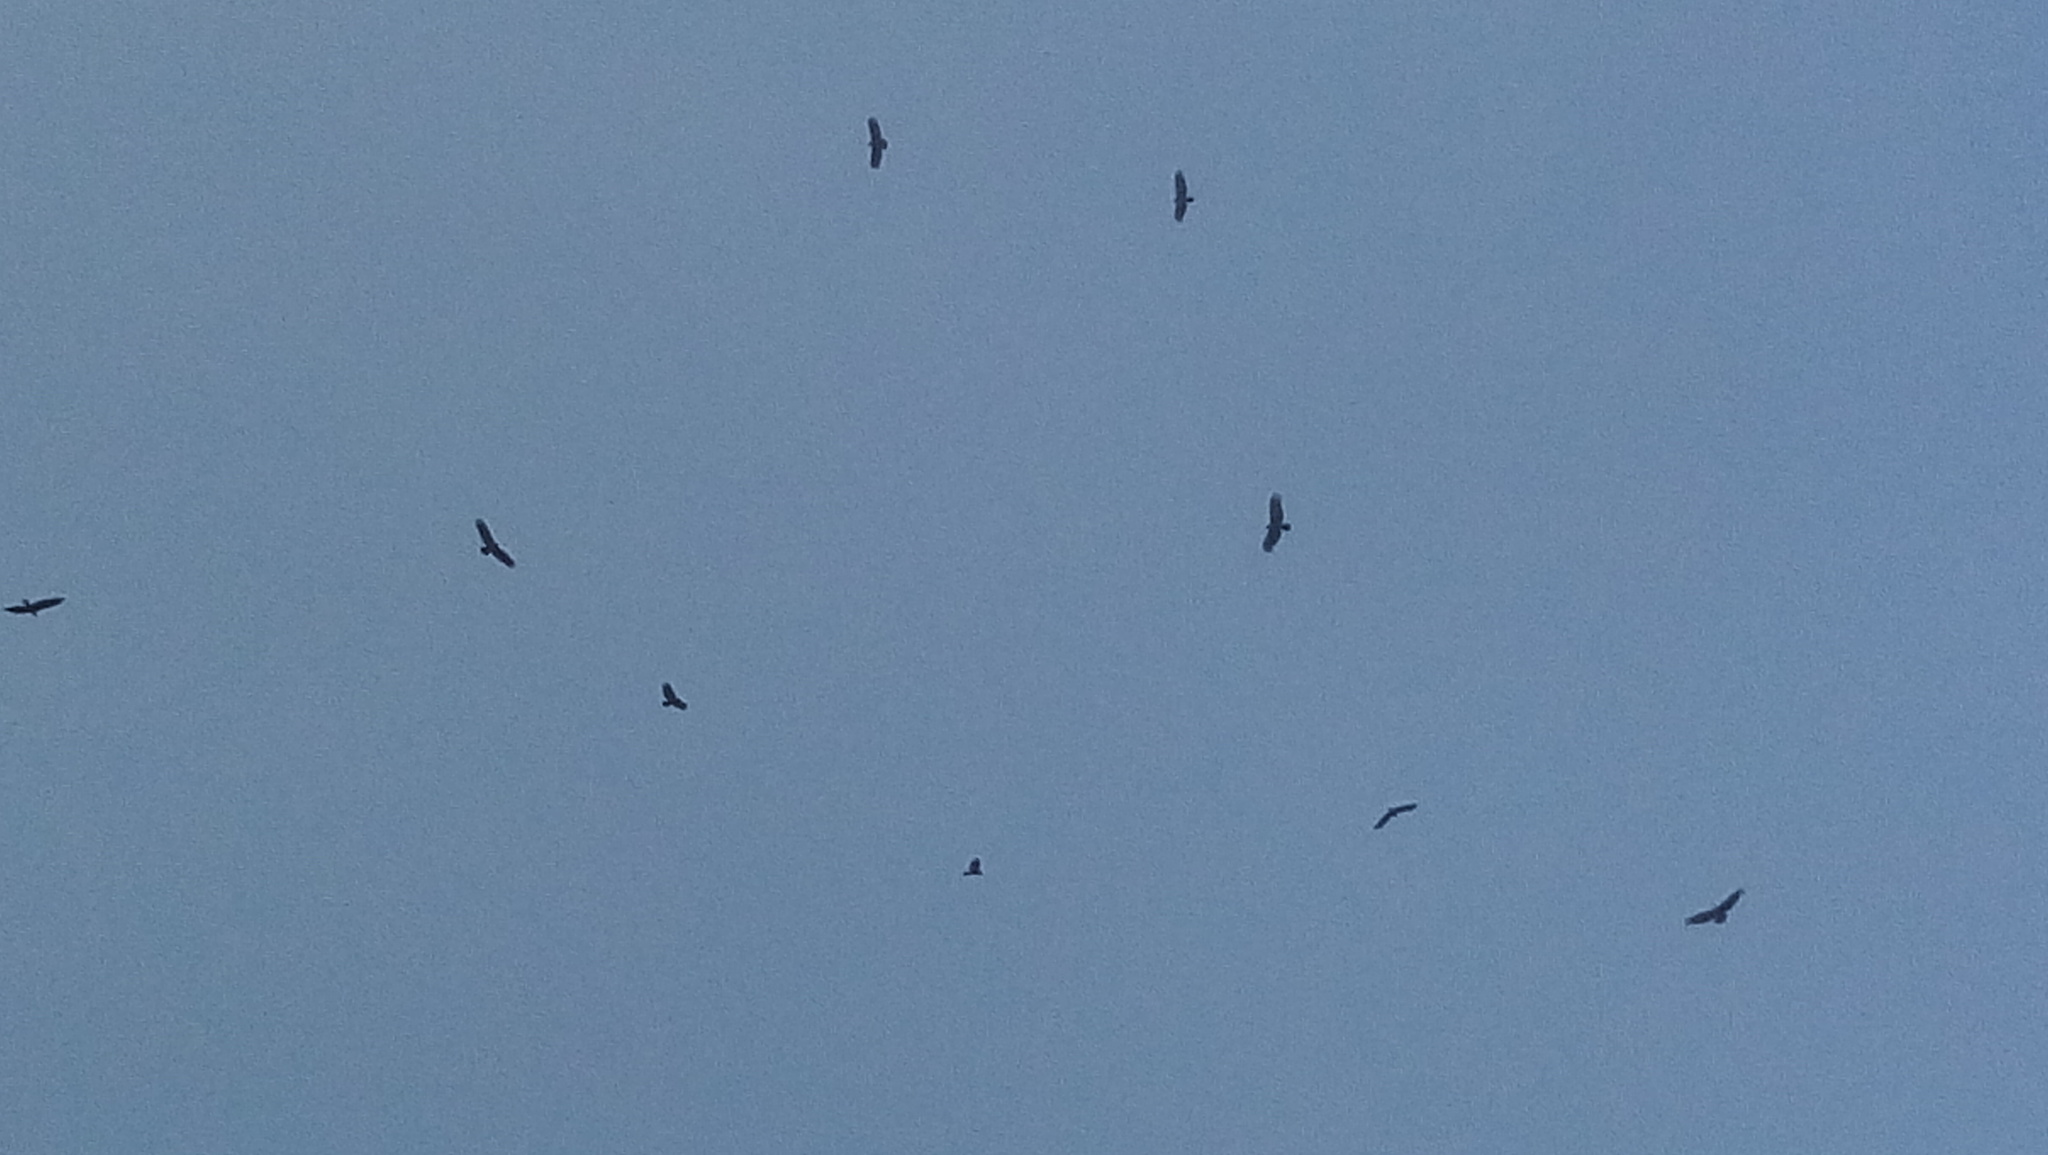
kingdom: Animalia
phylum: Chordata
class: Aves
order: Accipitriformes
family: Cathartidae
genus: Cathartes
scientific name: Cathartes aura
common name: Turkey vulture
